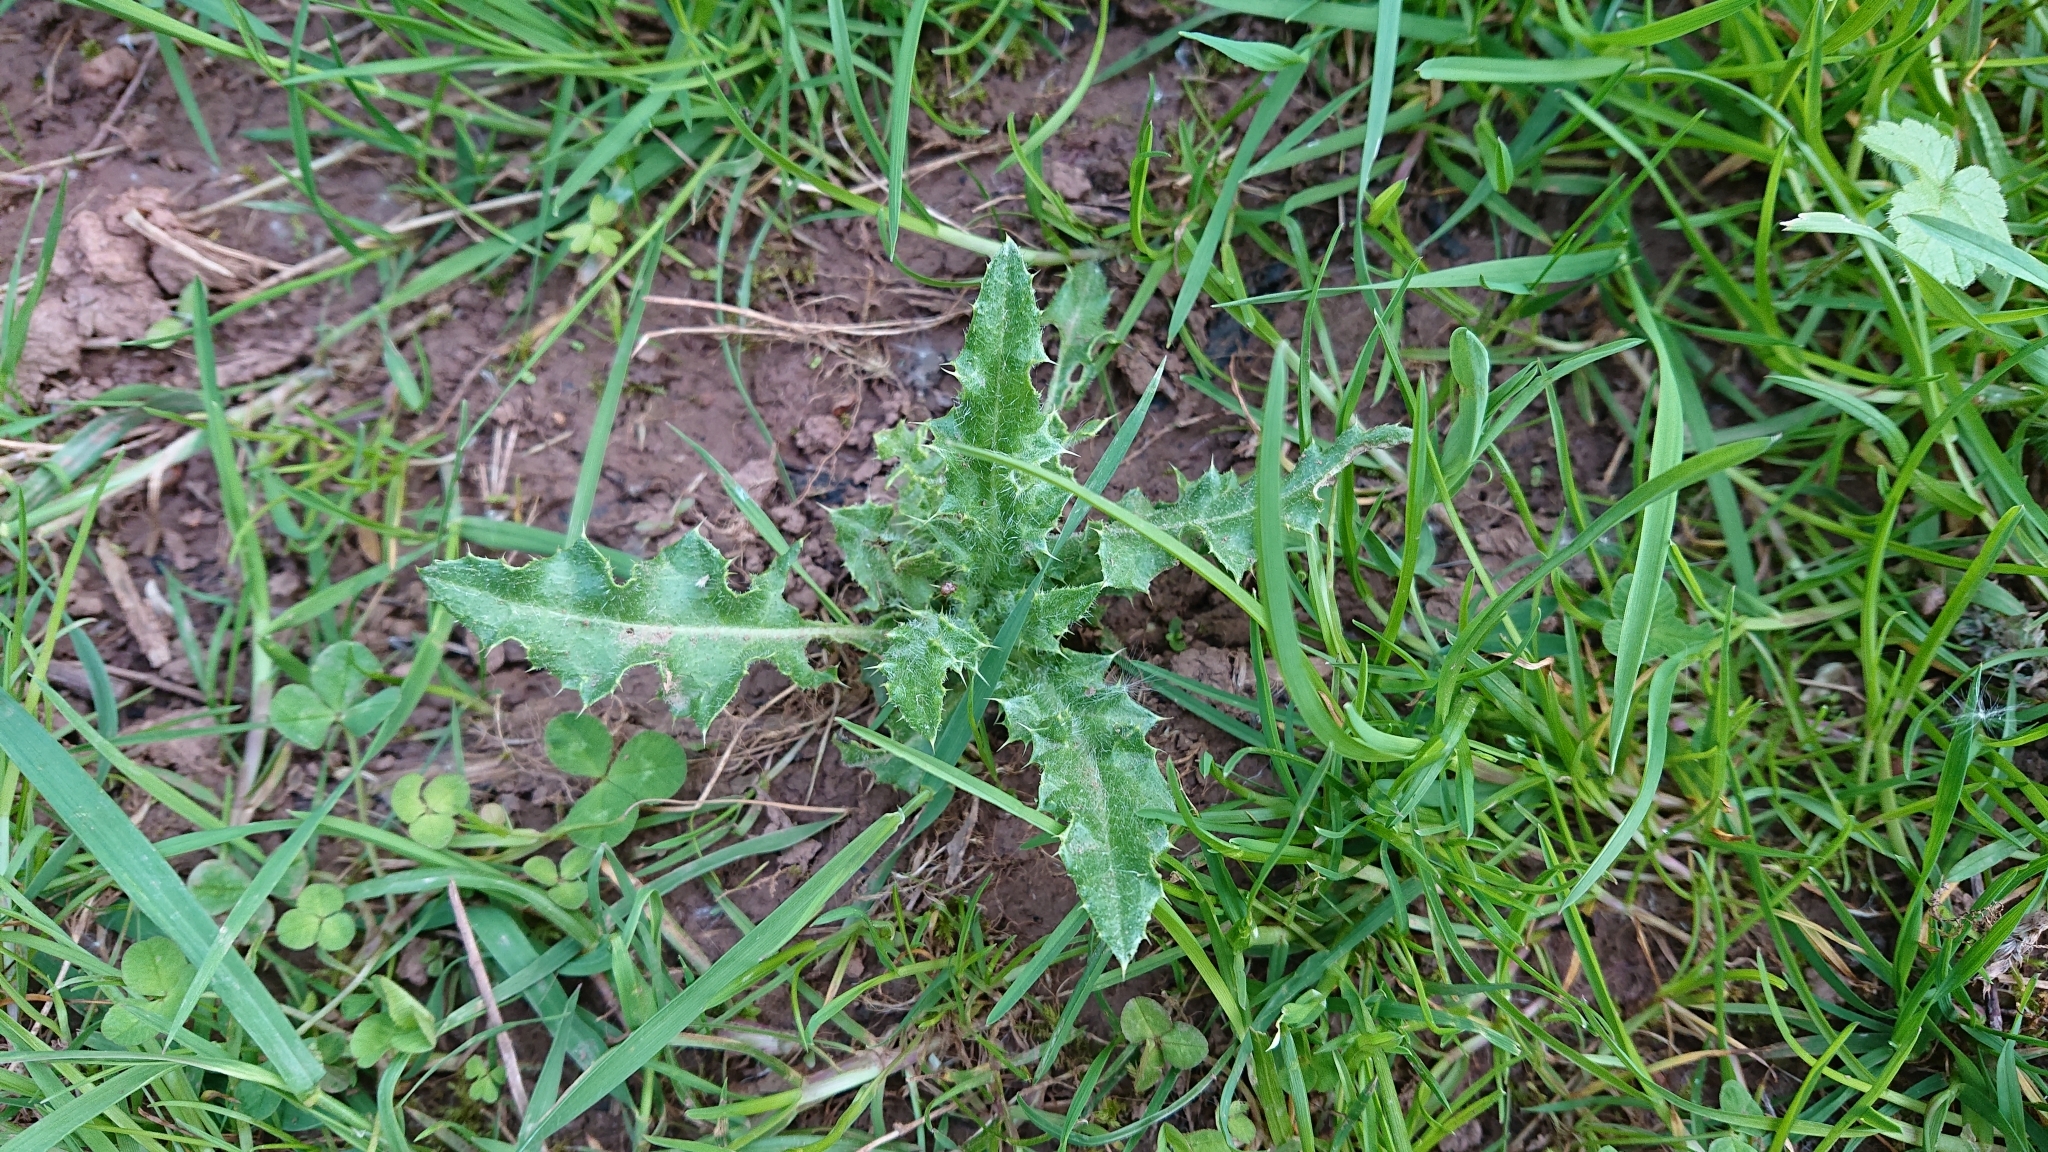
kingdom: Plantae
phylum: Tracheophyta
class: Magnoliopsida
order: Asterales
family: Asteraceae
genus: Cirsium
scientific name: Cirsium arvense
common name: Creeping thistle
